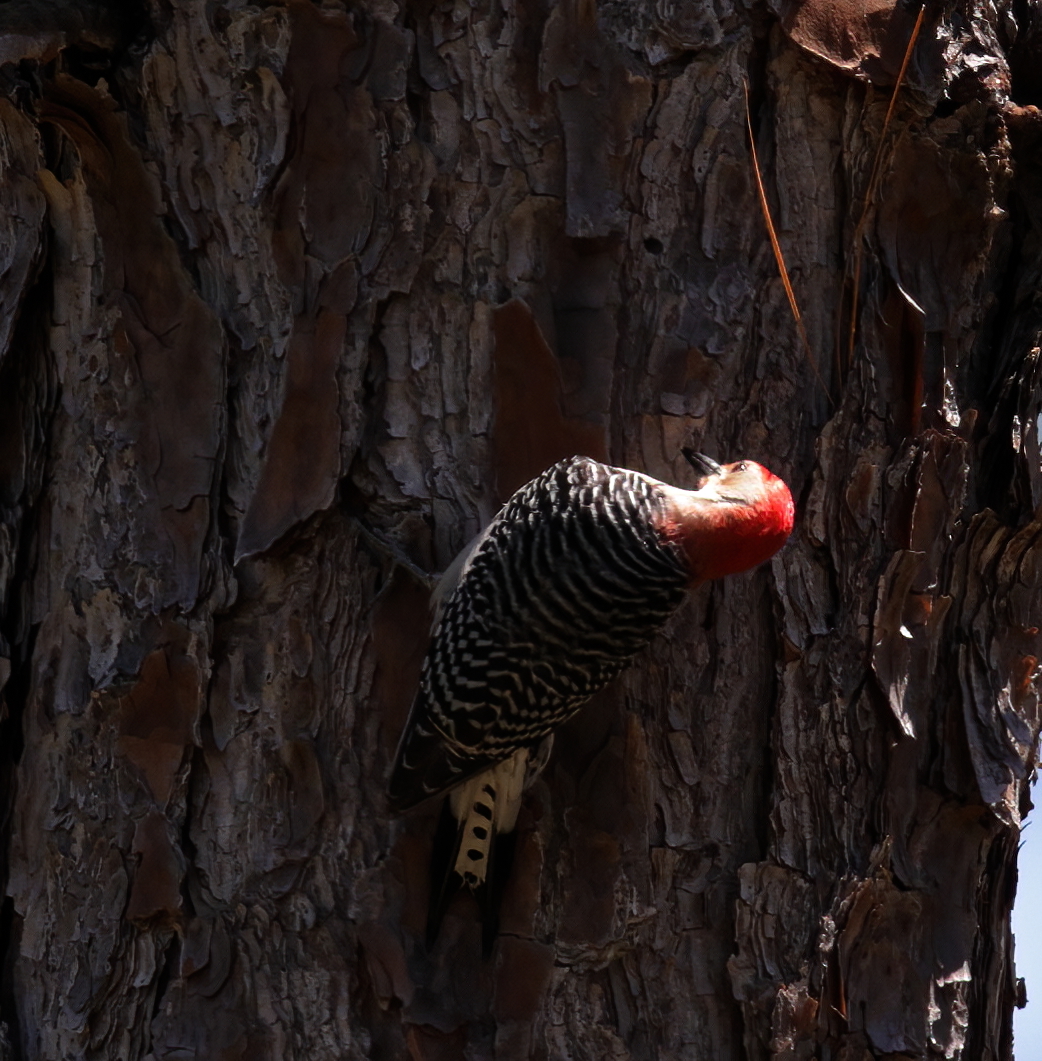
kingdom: Animalia
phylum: Chordata
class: Aves
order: Piciformes
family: Picidae
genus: Melanerpes
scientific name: Melanerpes carolinus
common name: Red-bellied woodpecker
